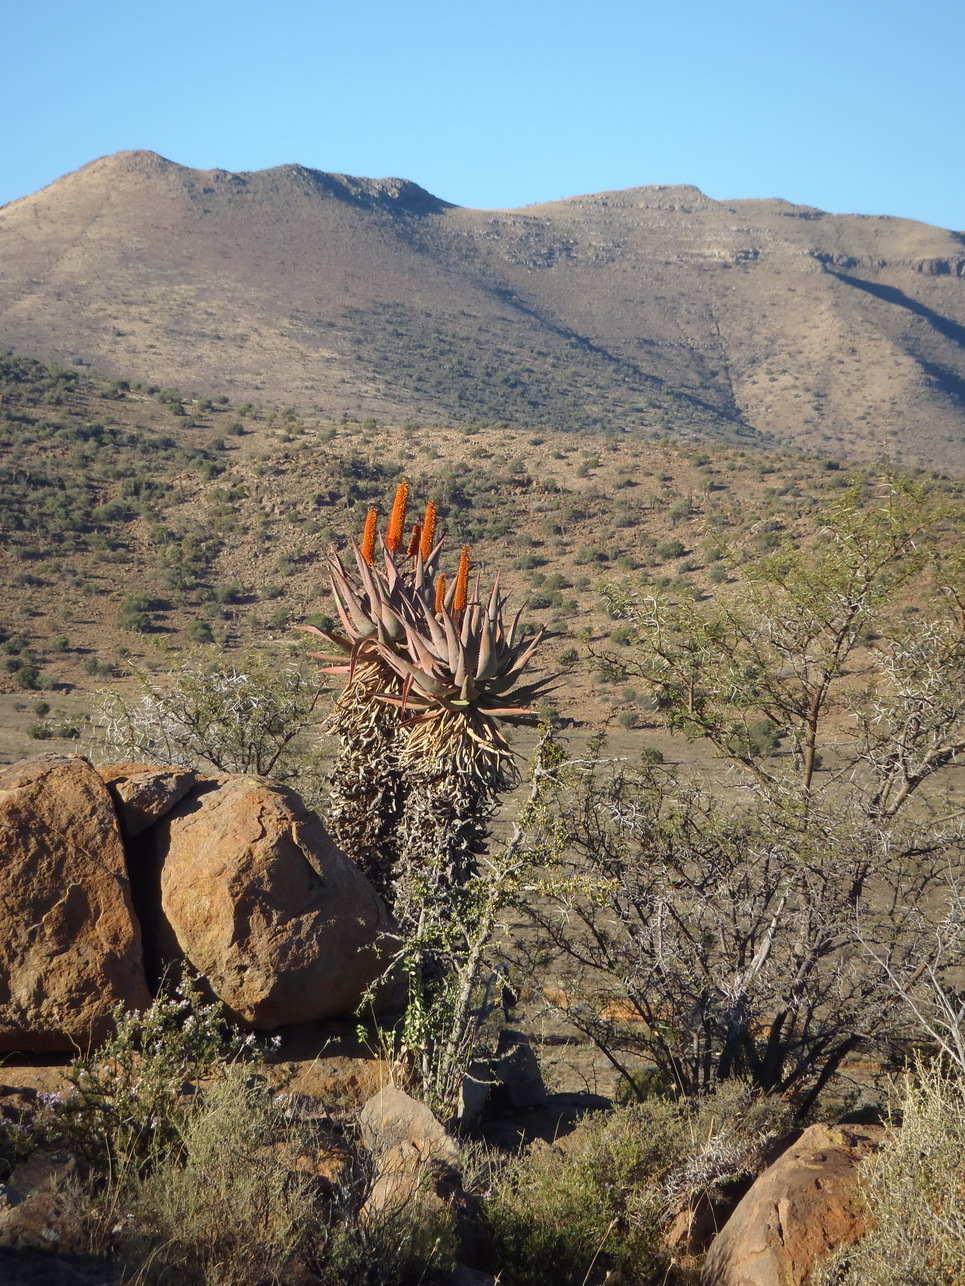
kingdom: Plantae
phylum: Tracheophyta
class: Liliopsida
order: Asparagales
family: Asphodelaceae
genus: Aloe
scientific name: Aloe ferox
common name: Bitter aloe
